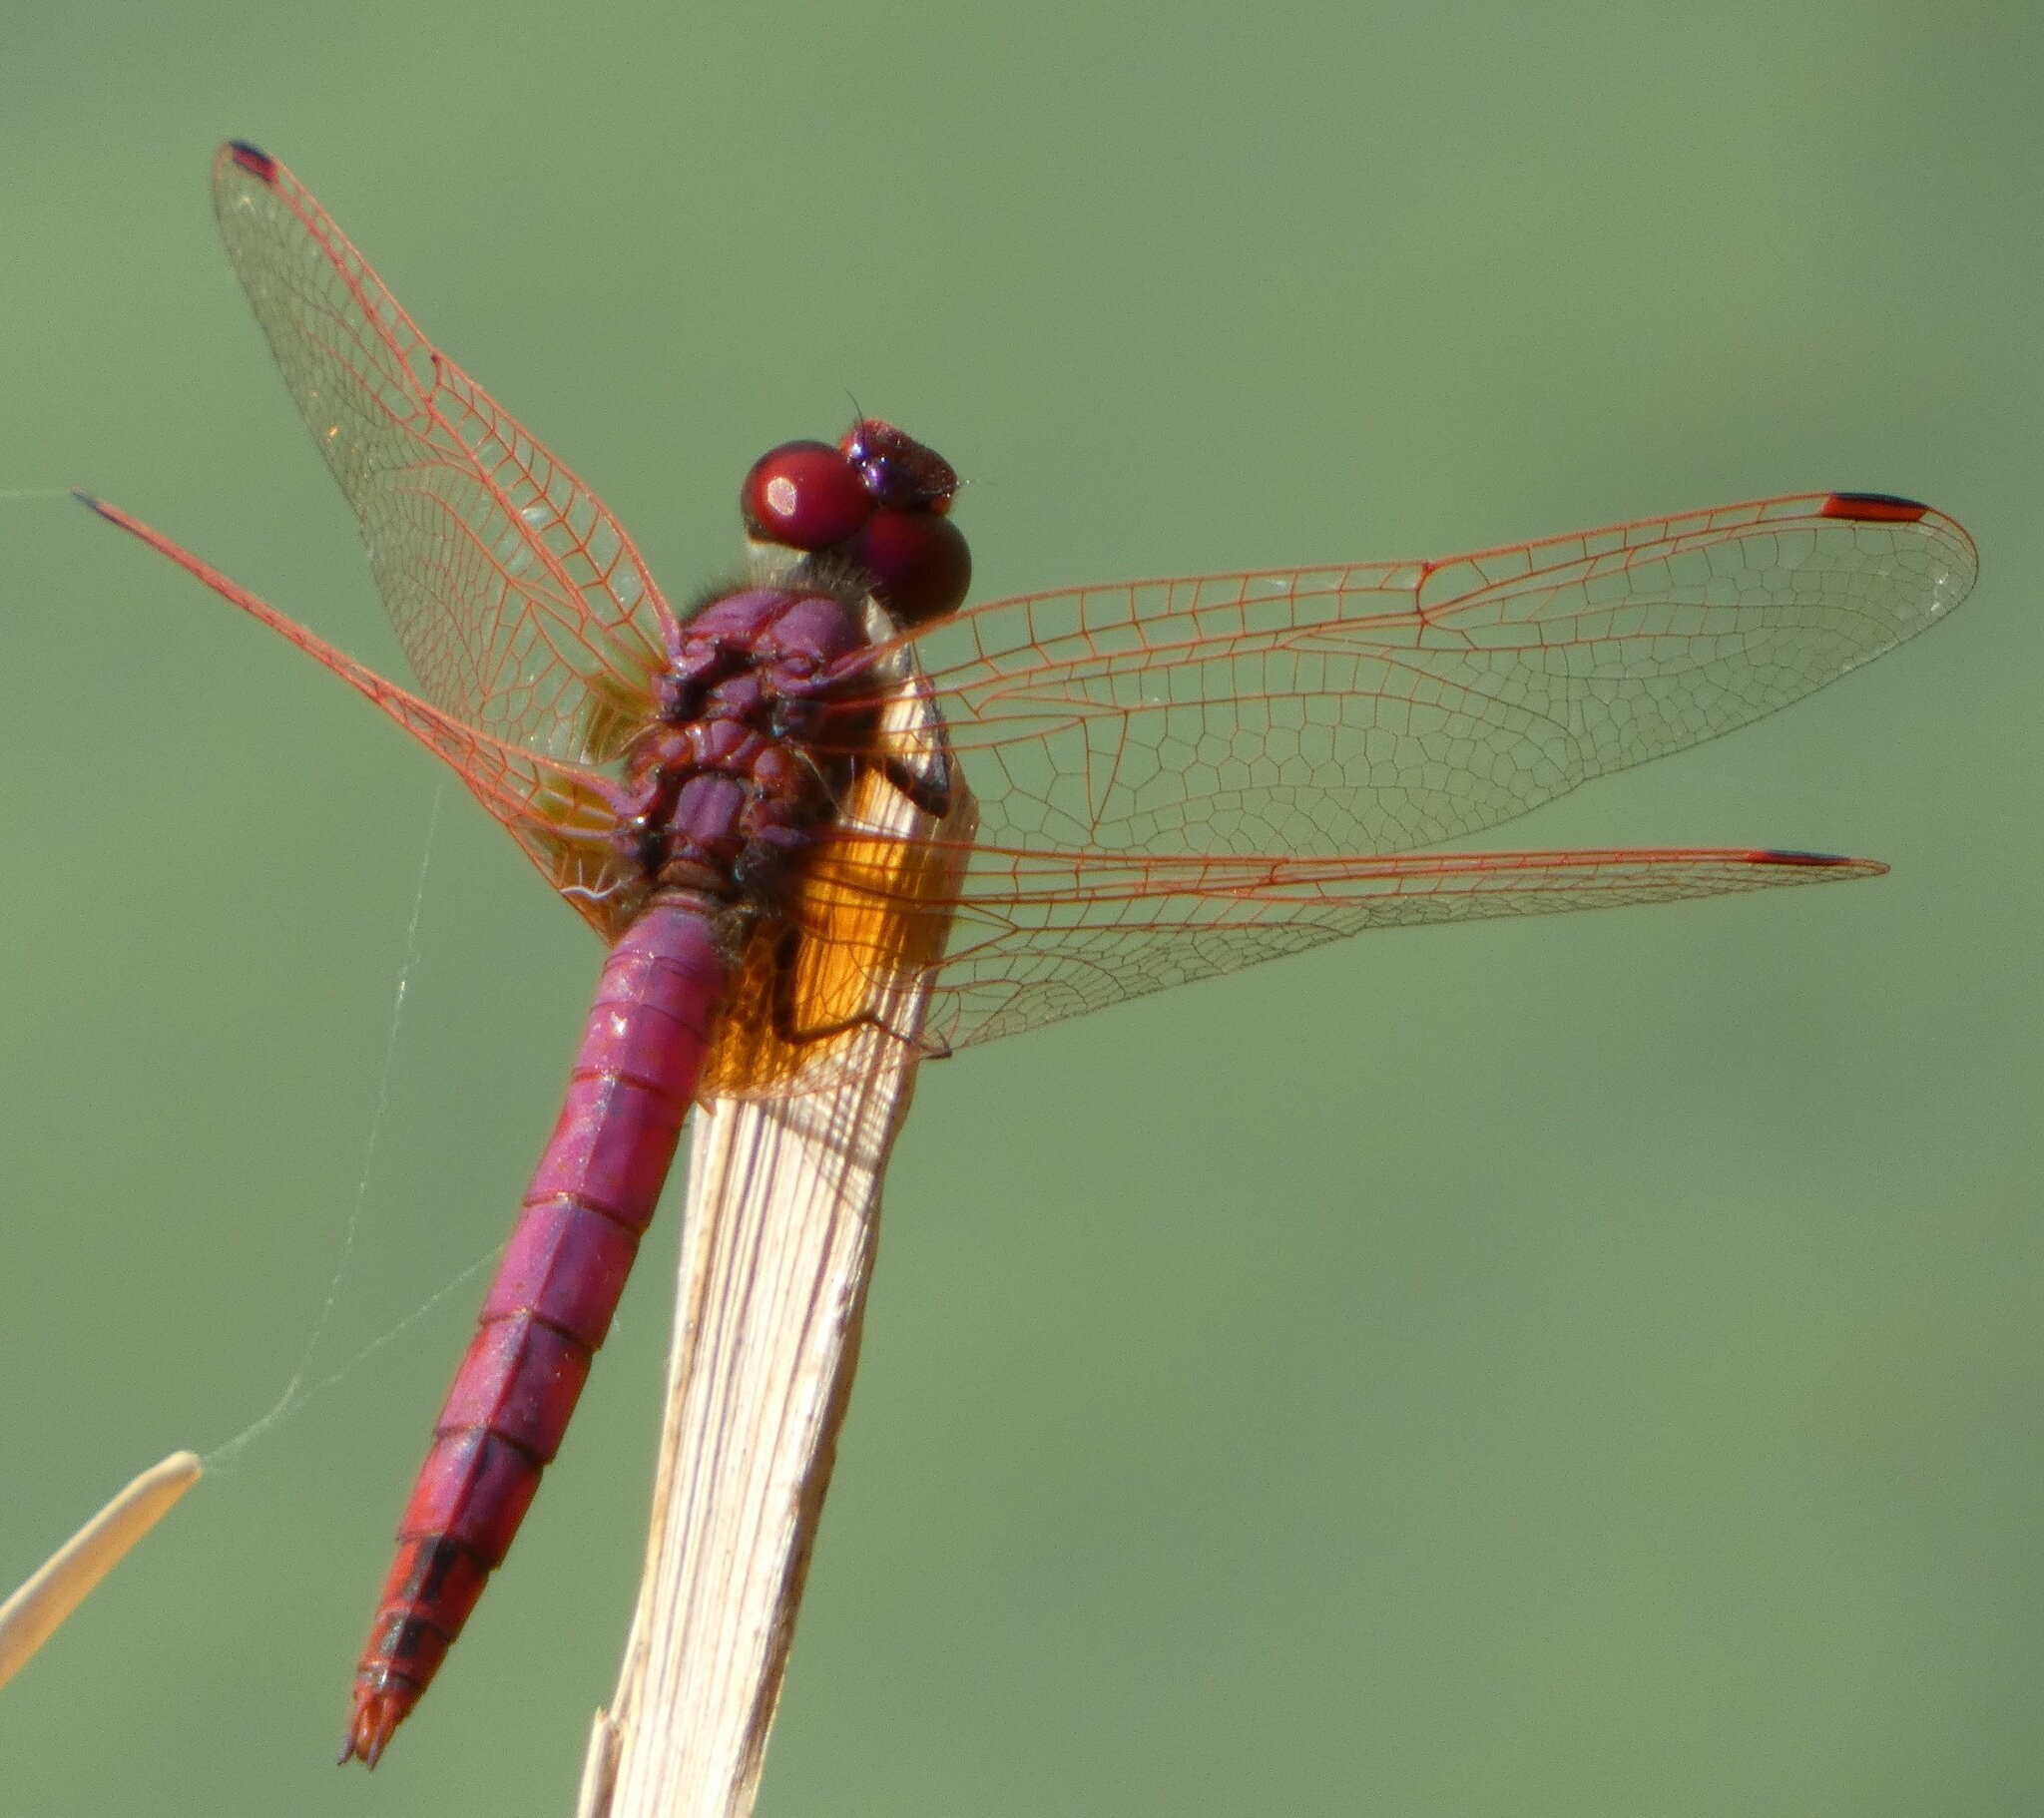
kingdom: Animalia
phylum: Arthropoda
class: Insecta
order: Odonata
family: Libellulidae
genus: Trithemis
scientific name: Trithemis annulata
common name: Violet dropwing
